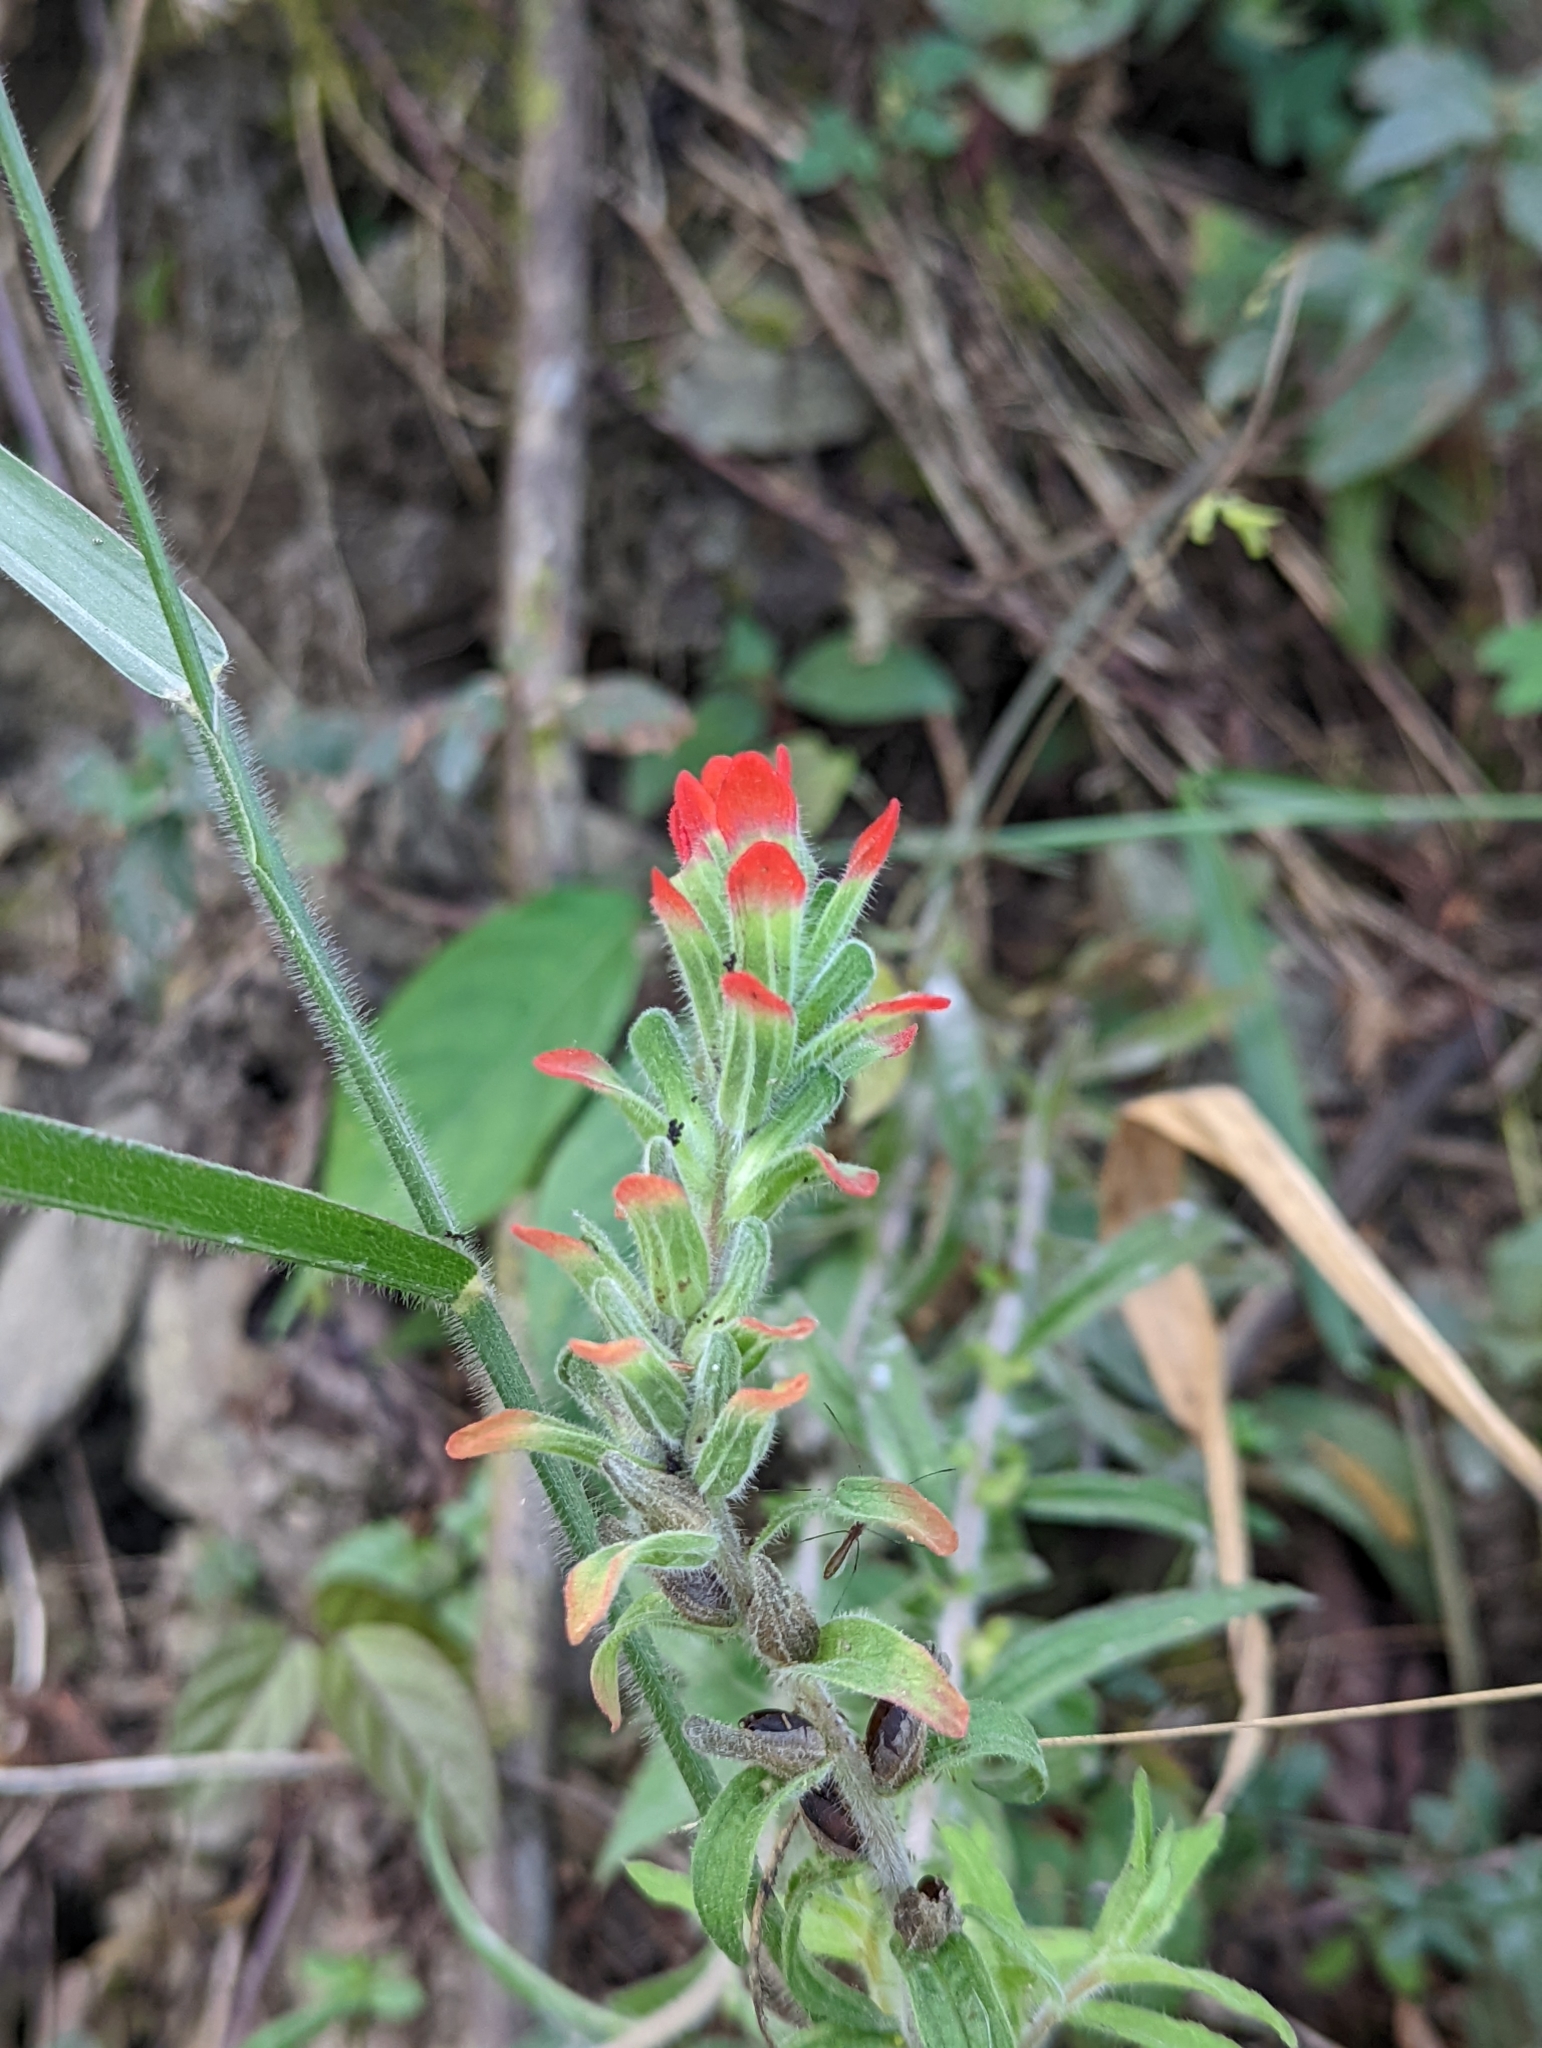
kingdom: Plantae
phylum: Tracheophyta
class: Magnoliopsida
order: Lamiales
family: Orobanchaceae
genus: Castilleja
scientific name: Castilleja arvensis
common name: Indian paintbrush
